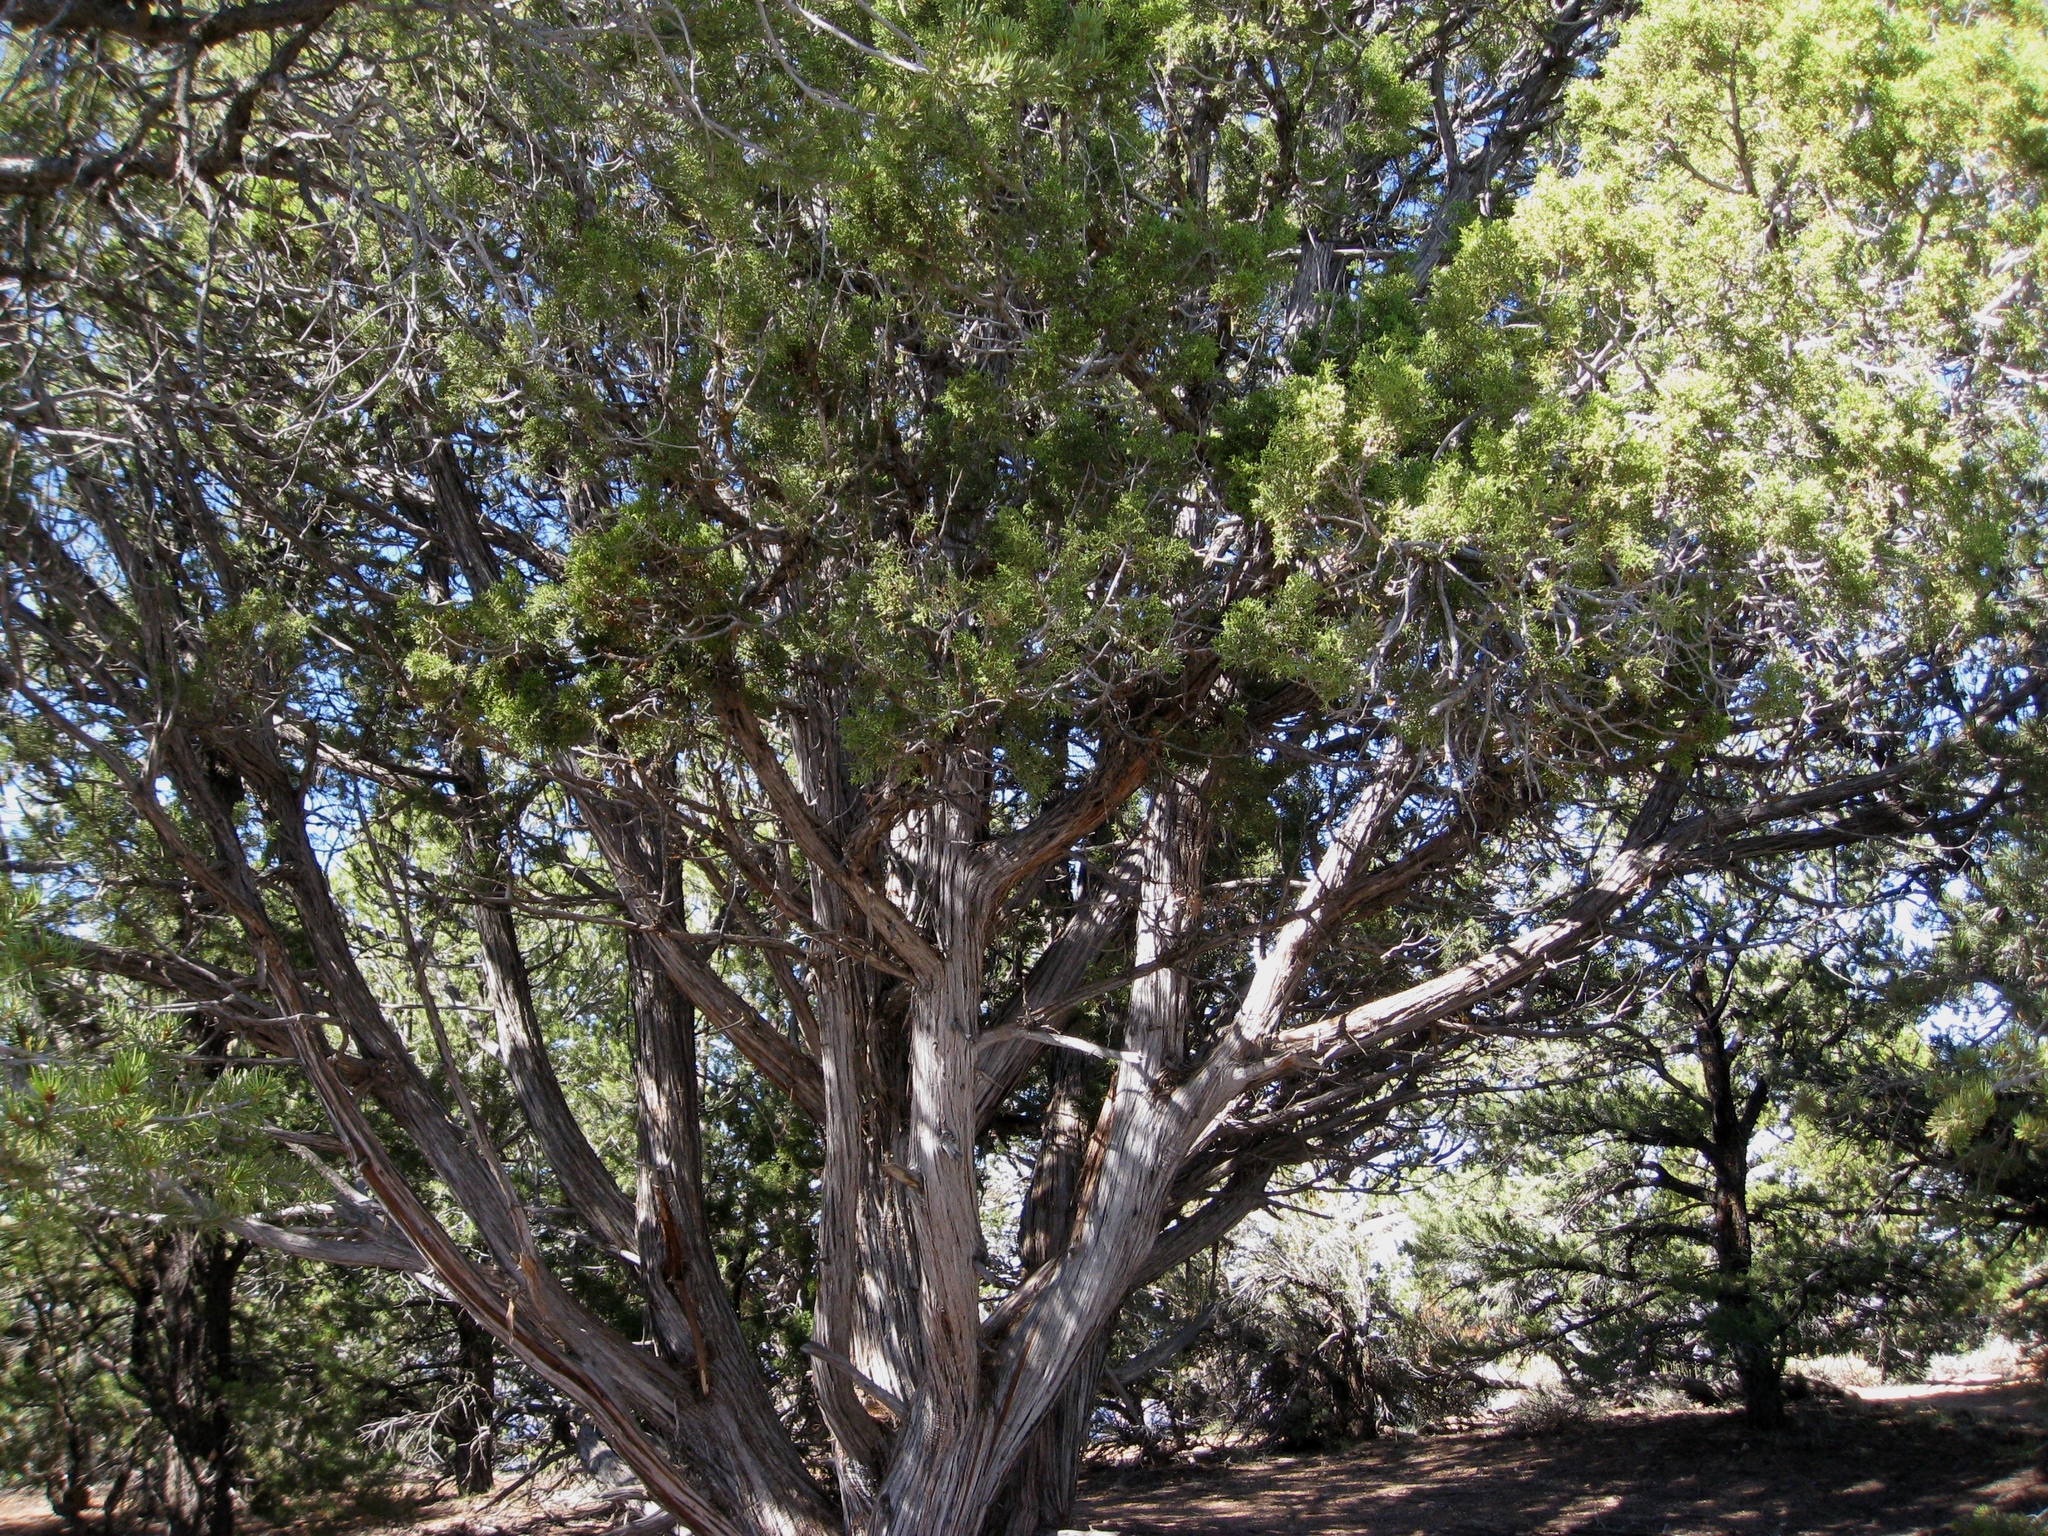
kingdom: Plantae
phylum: Tracheophyta
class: Pinopsida
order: Pinales
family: Cupressaceae
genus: Juniperus
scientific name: Juniperus osteosperma
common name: Utah juniper
